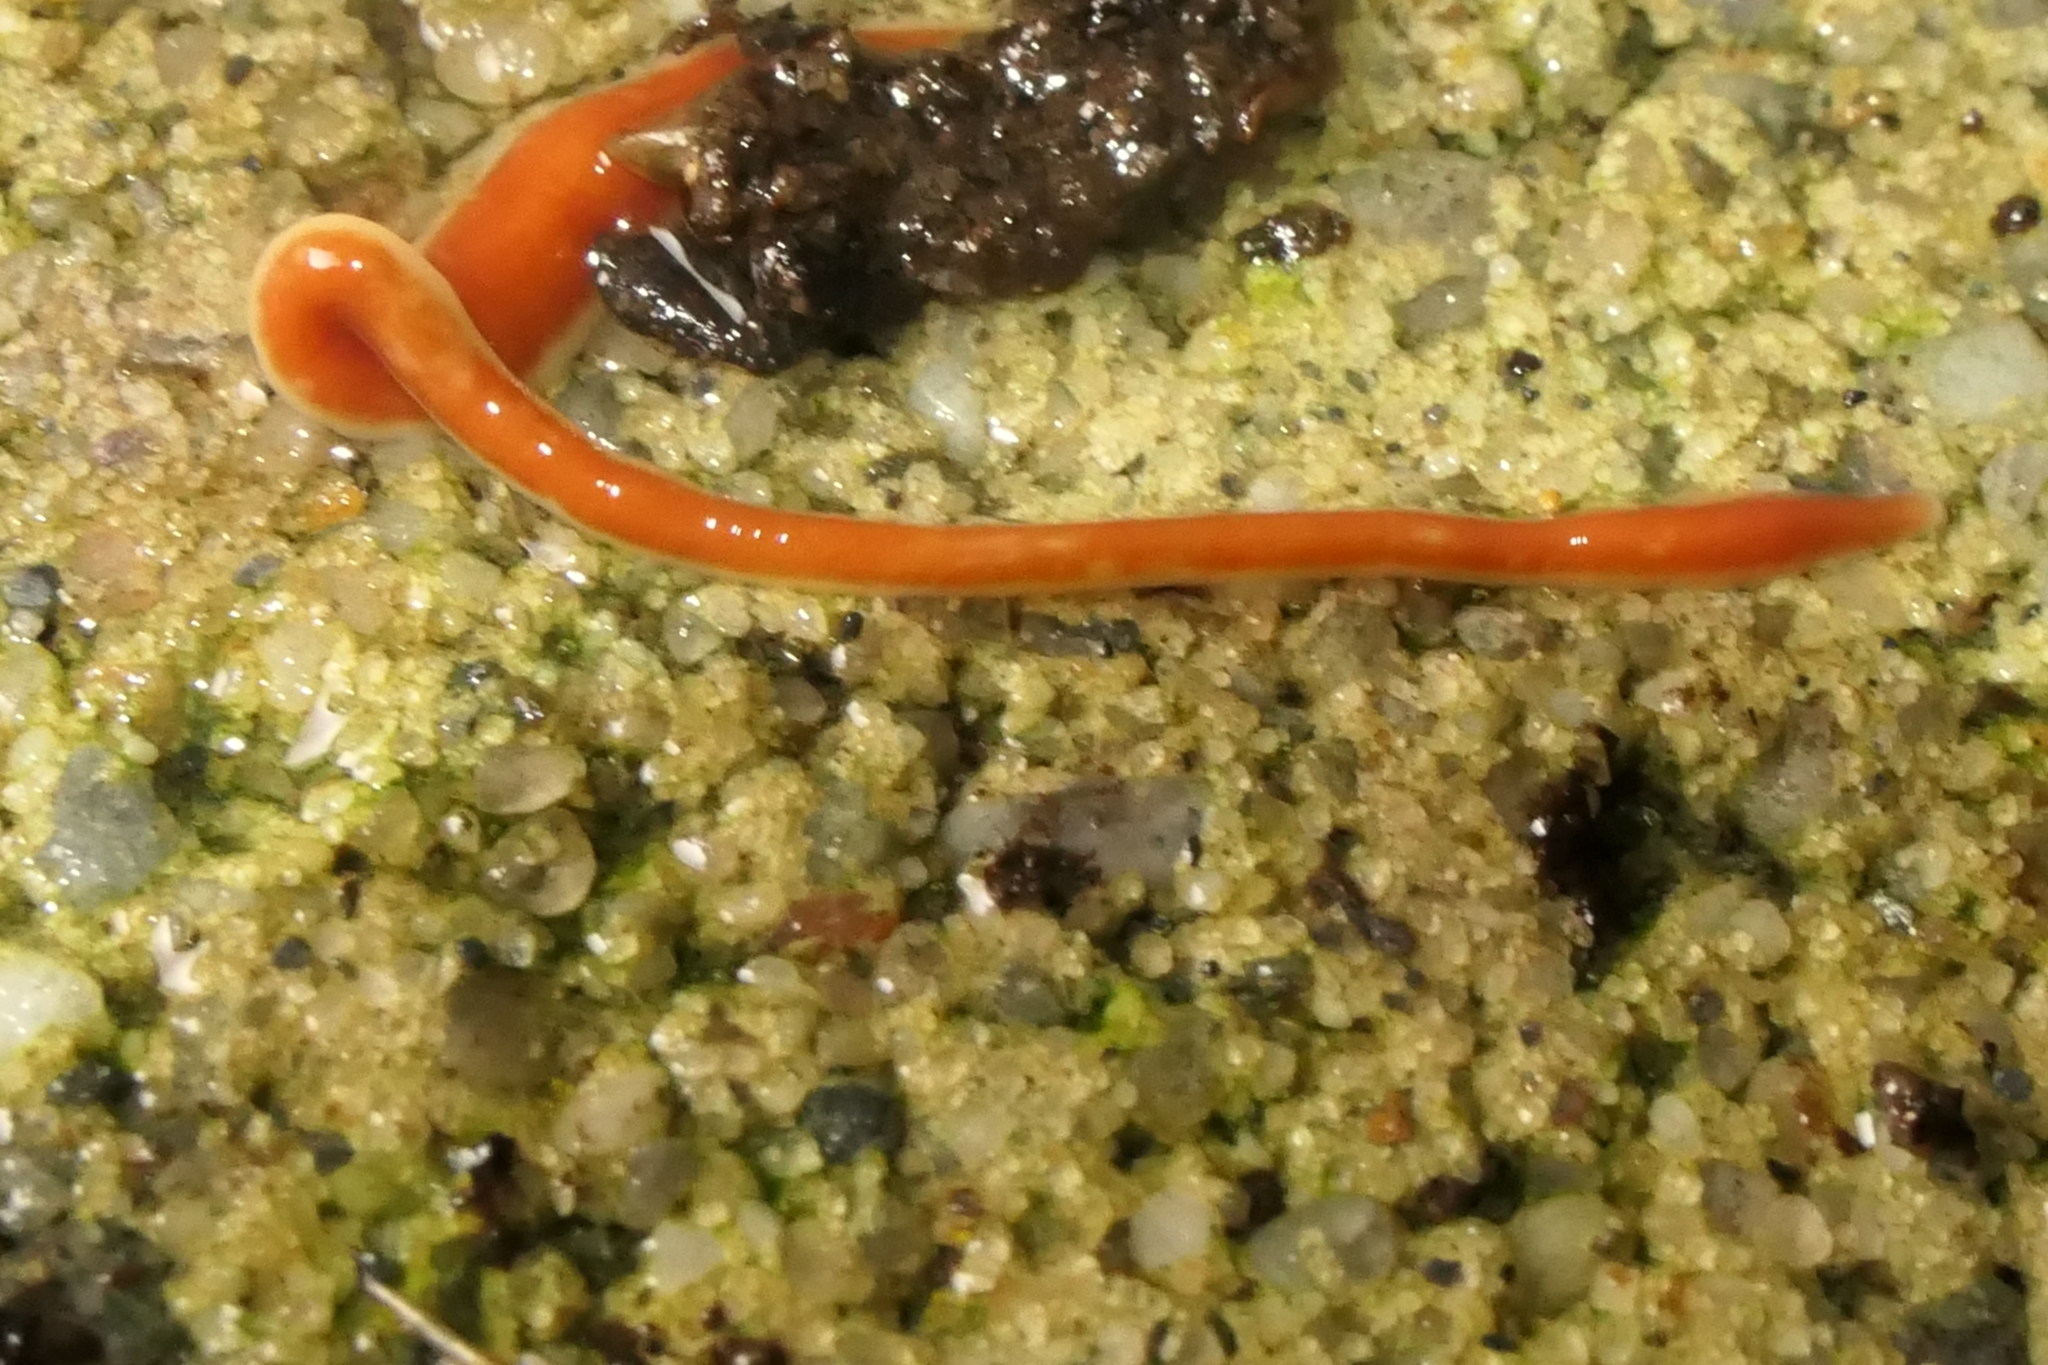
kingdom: Animalia
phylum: Platyhelminthes
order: Tricladida
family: Geoplanidae
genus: Arthurdendyus
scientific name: Arthurdendyus testaceus
